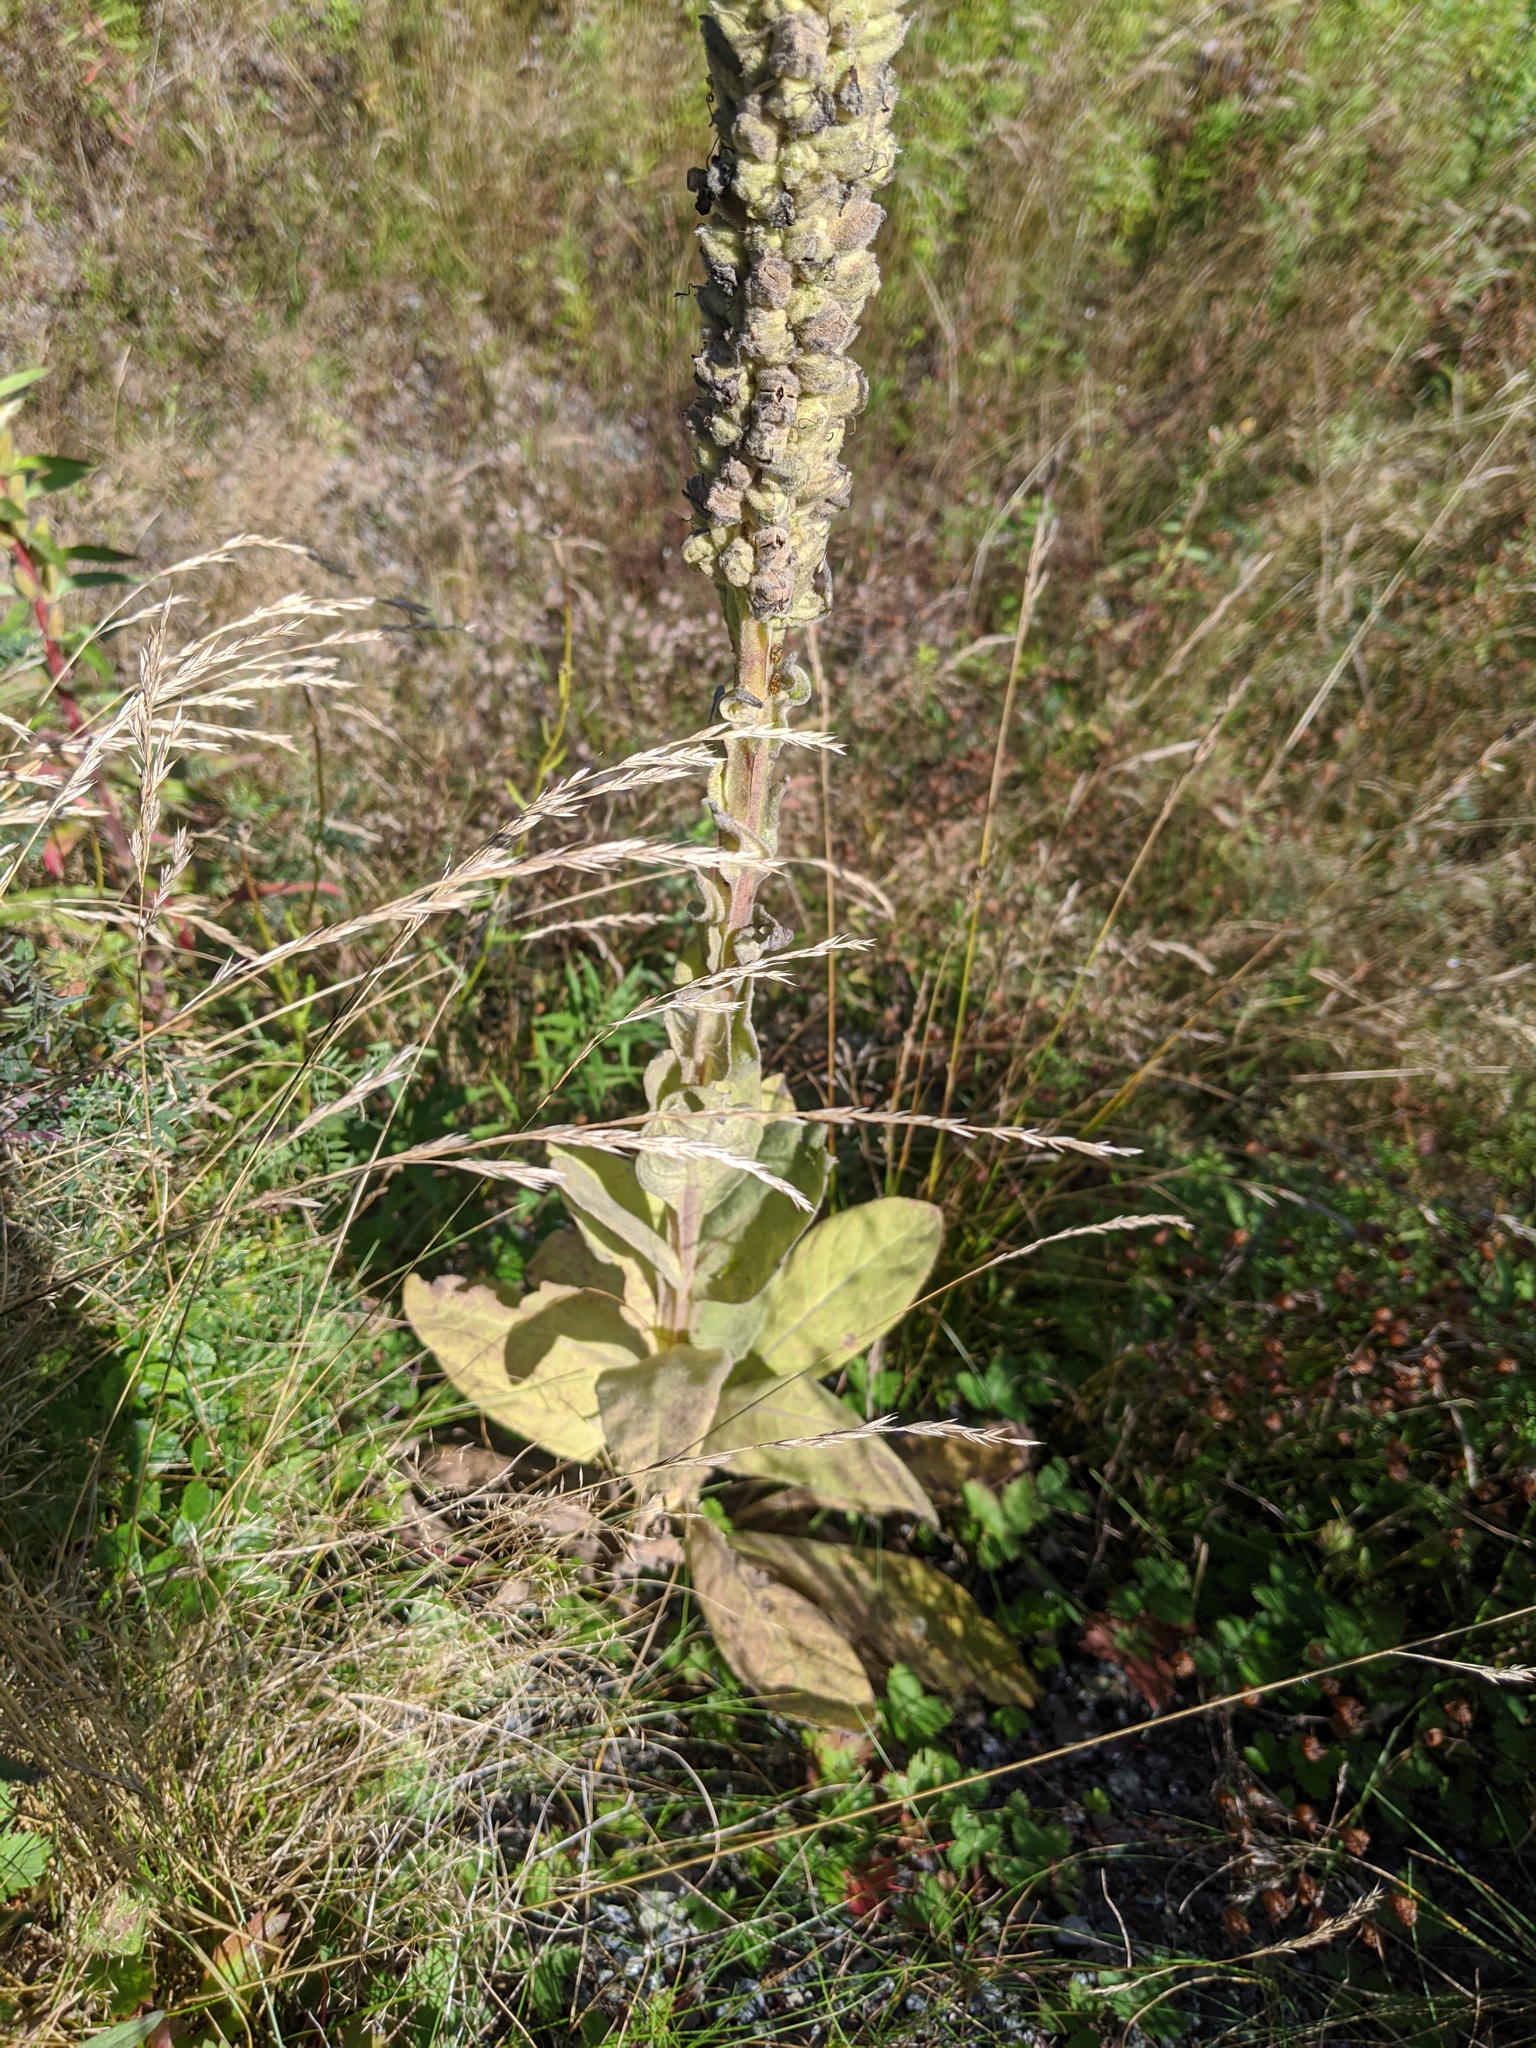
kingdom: Plantae
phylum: Tracheophyta
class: Magnoliopsida
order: Lamiales
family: Scrophulariaceae
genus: Verbascum
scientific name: Verbascum thapsus
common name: Common mullein
